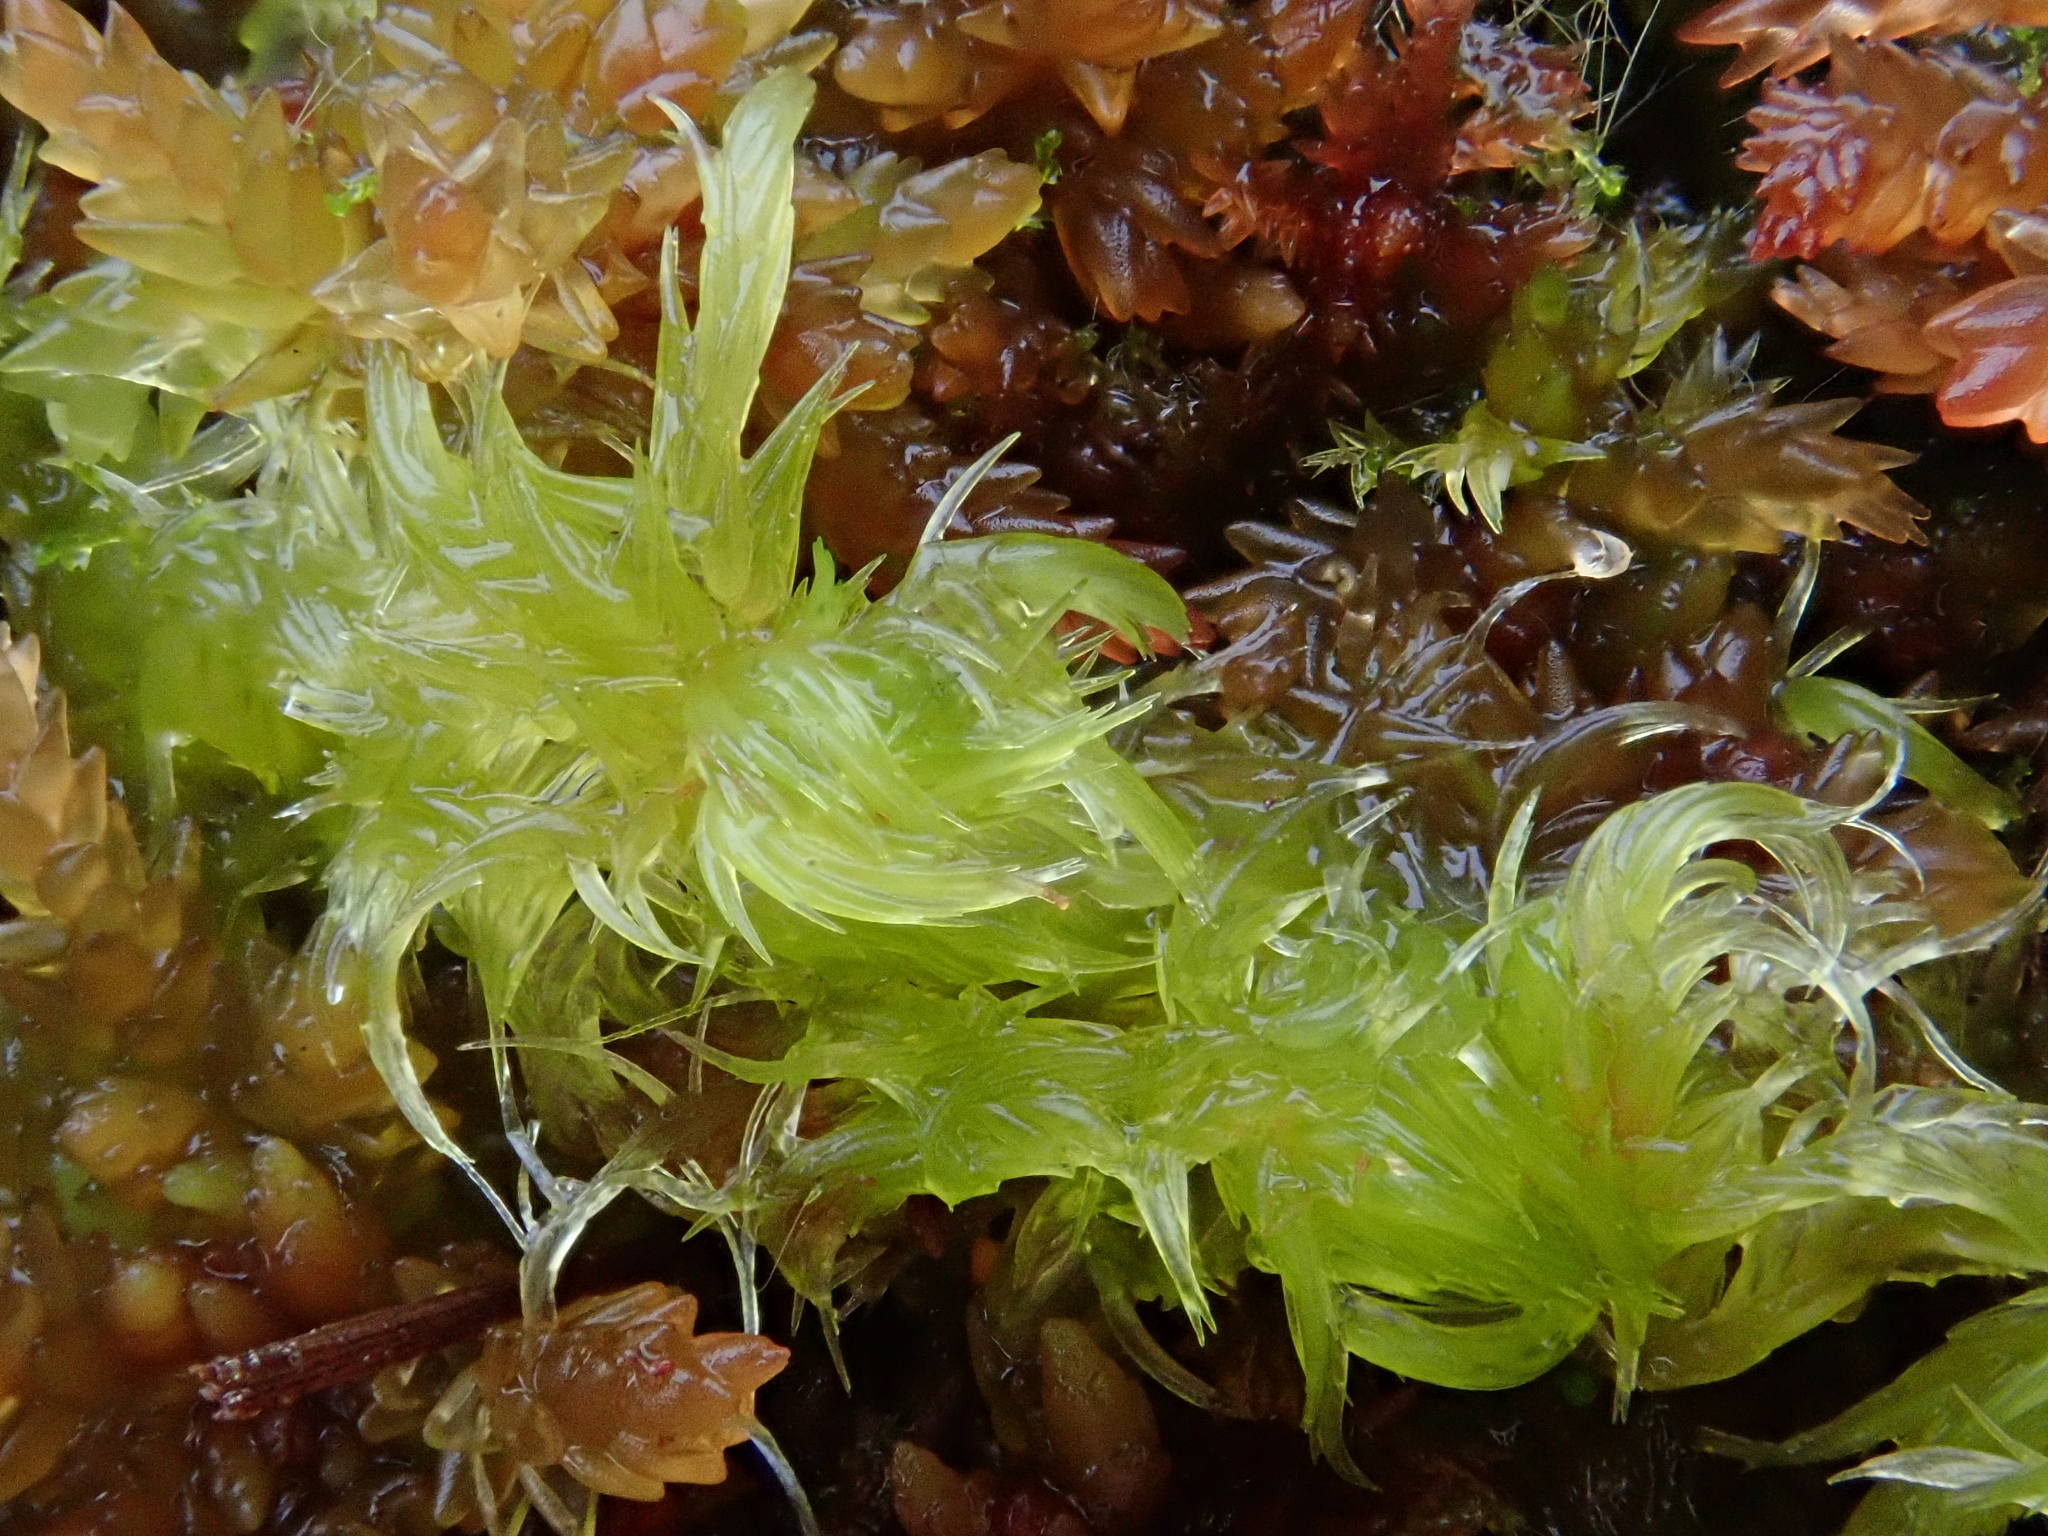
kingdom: Plantae
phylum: Bryophyta
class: Sphagnopsida
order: Sphagnales
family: Sphagnaceae
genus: Sphagnum
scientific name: Sphagnum cuspidatum
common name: Feathery peat moss
